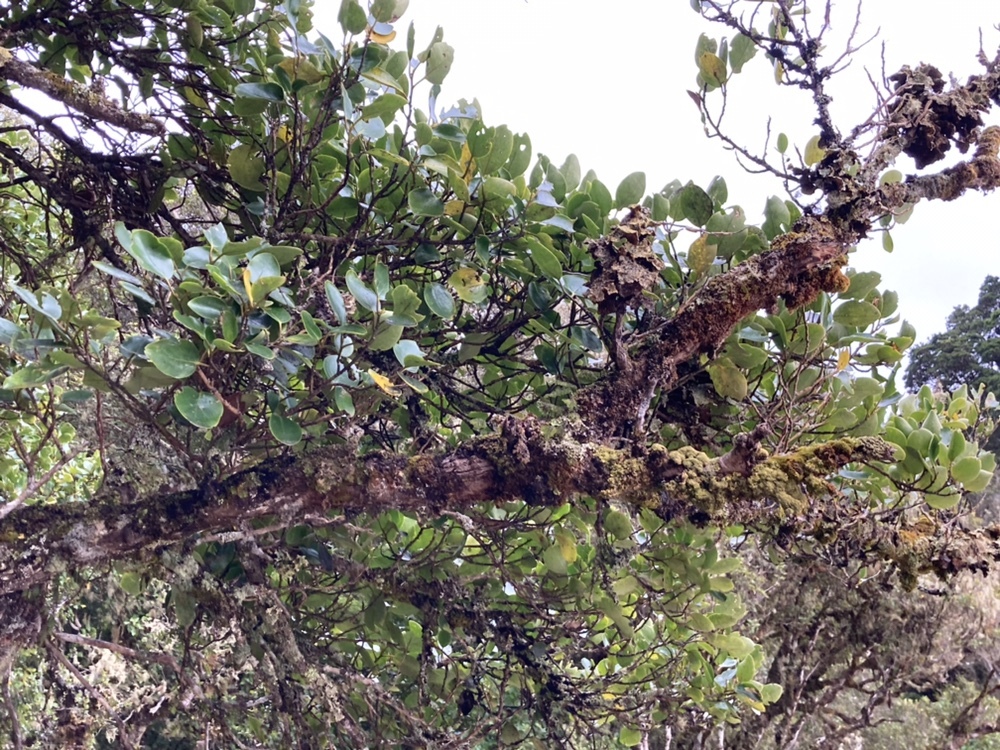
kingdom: Plantae
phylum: Tracheophyta
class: Magnoliopsida
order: Apiales
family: Griseliniaceae
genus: Griselinia
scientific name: Griselinia littoralis
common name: New zealand broadleaf
